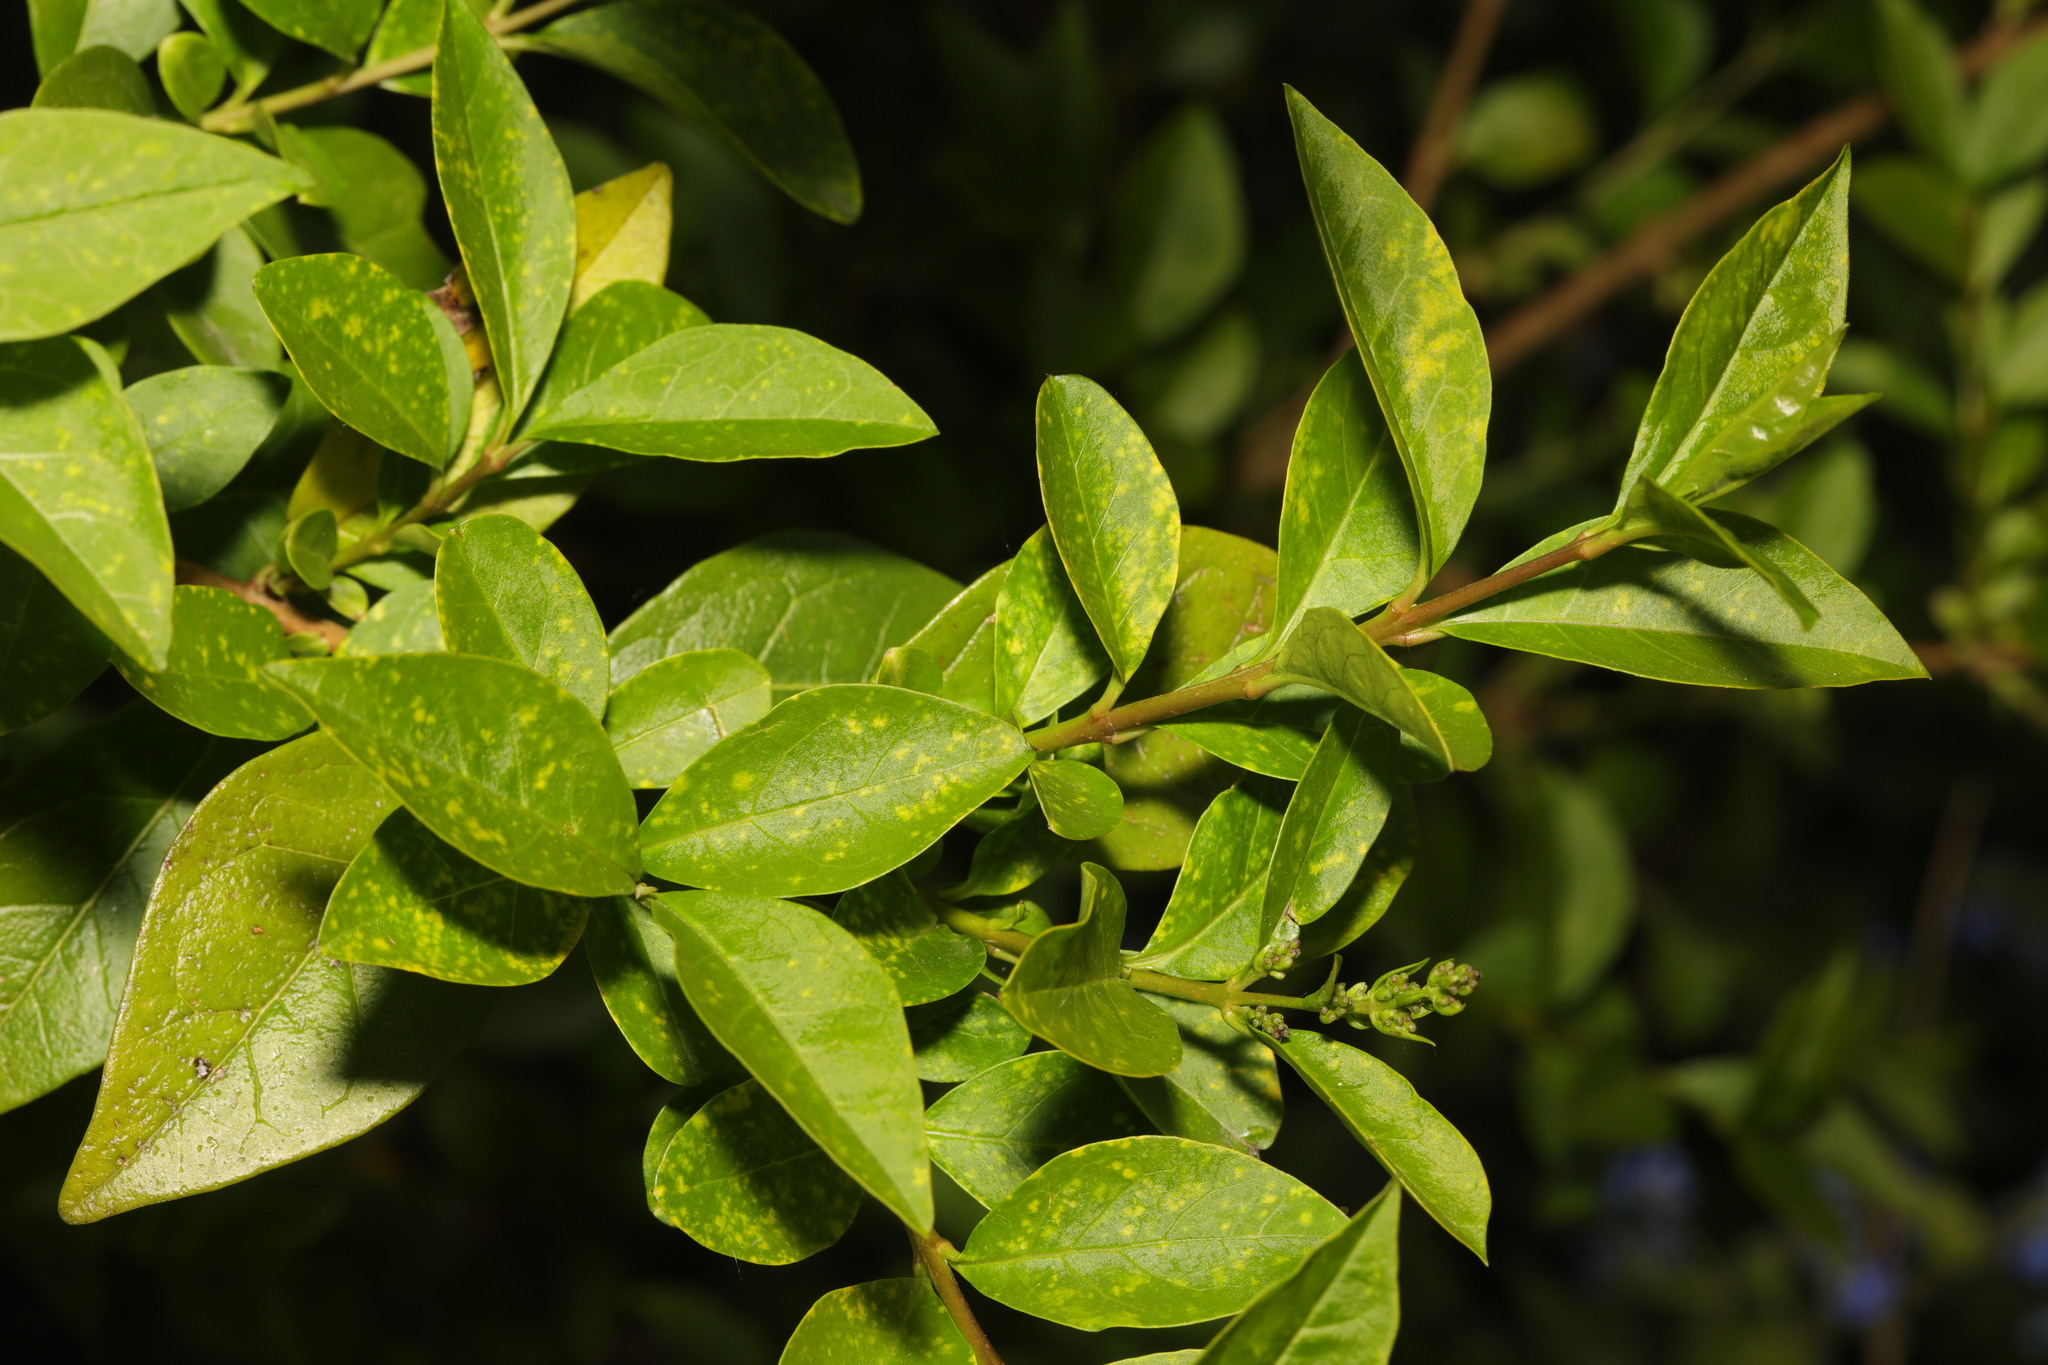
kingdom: Plantae
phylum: Tracheophyta
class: Magnoliopsida
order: Lamiales
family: Oleaceae
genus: Ligustrum
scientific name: Ligustrum ovalifolium
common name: California privet
